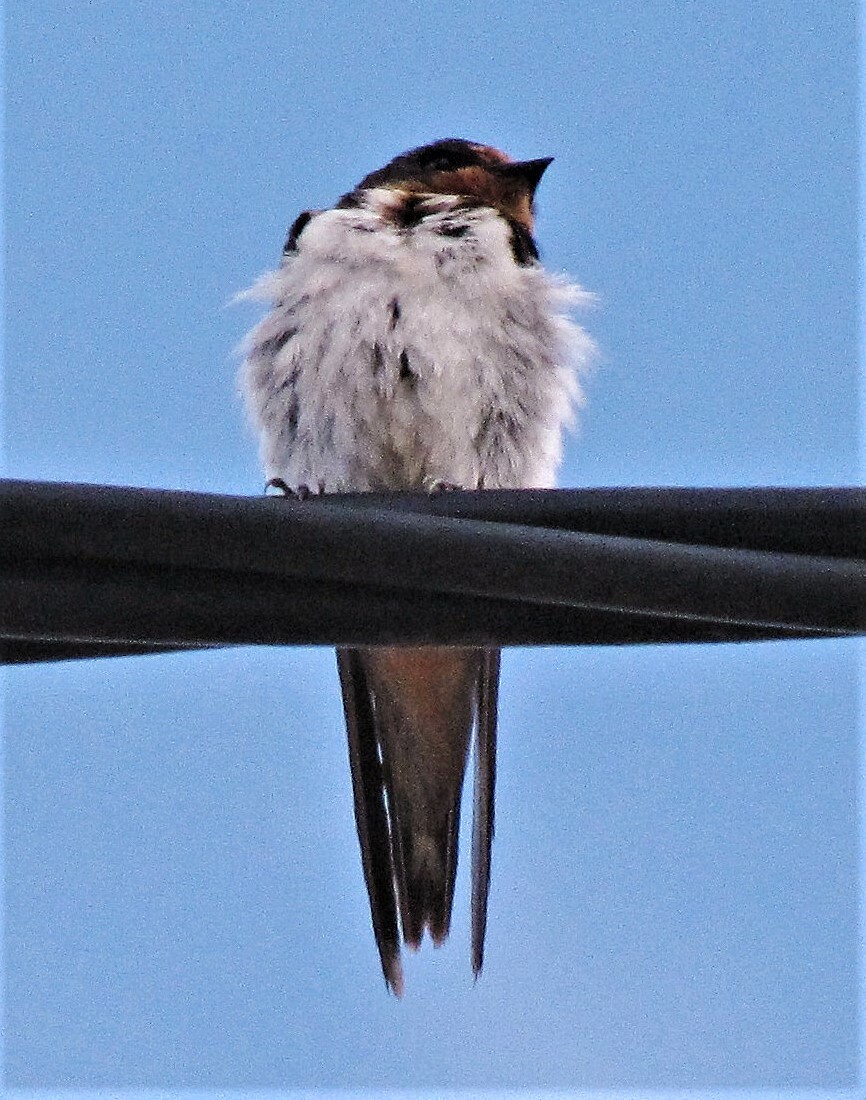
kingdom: Animalia
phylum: Chordata
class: Aves
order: Passeriformes
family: Hirundinidae
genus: Hirundo
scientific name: Hirundo rustica
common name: Barn swallow
